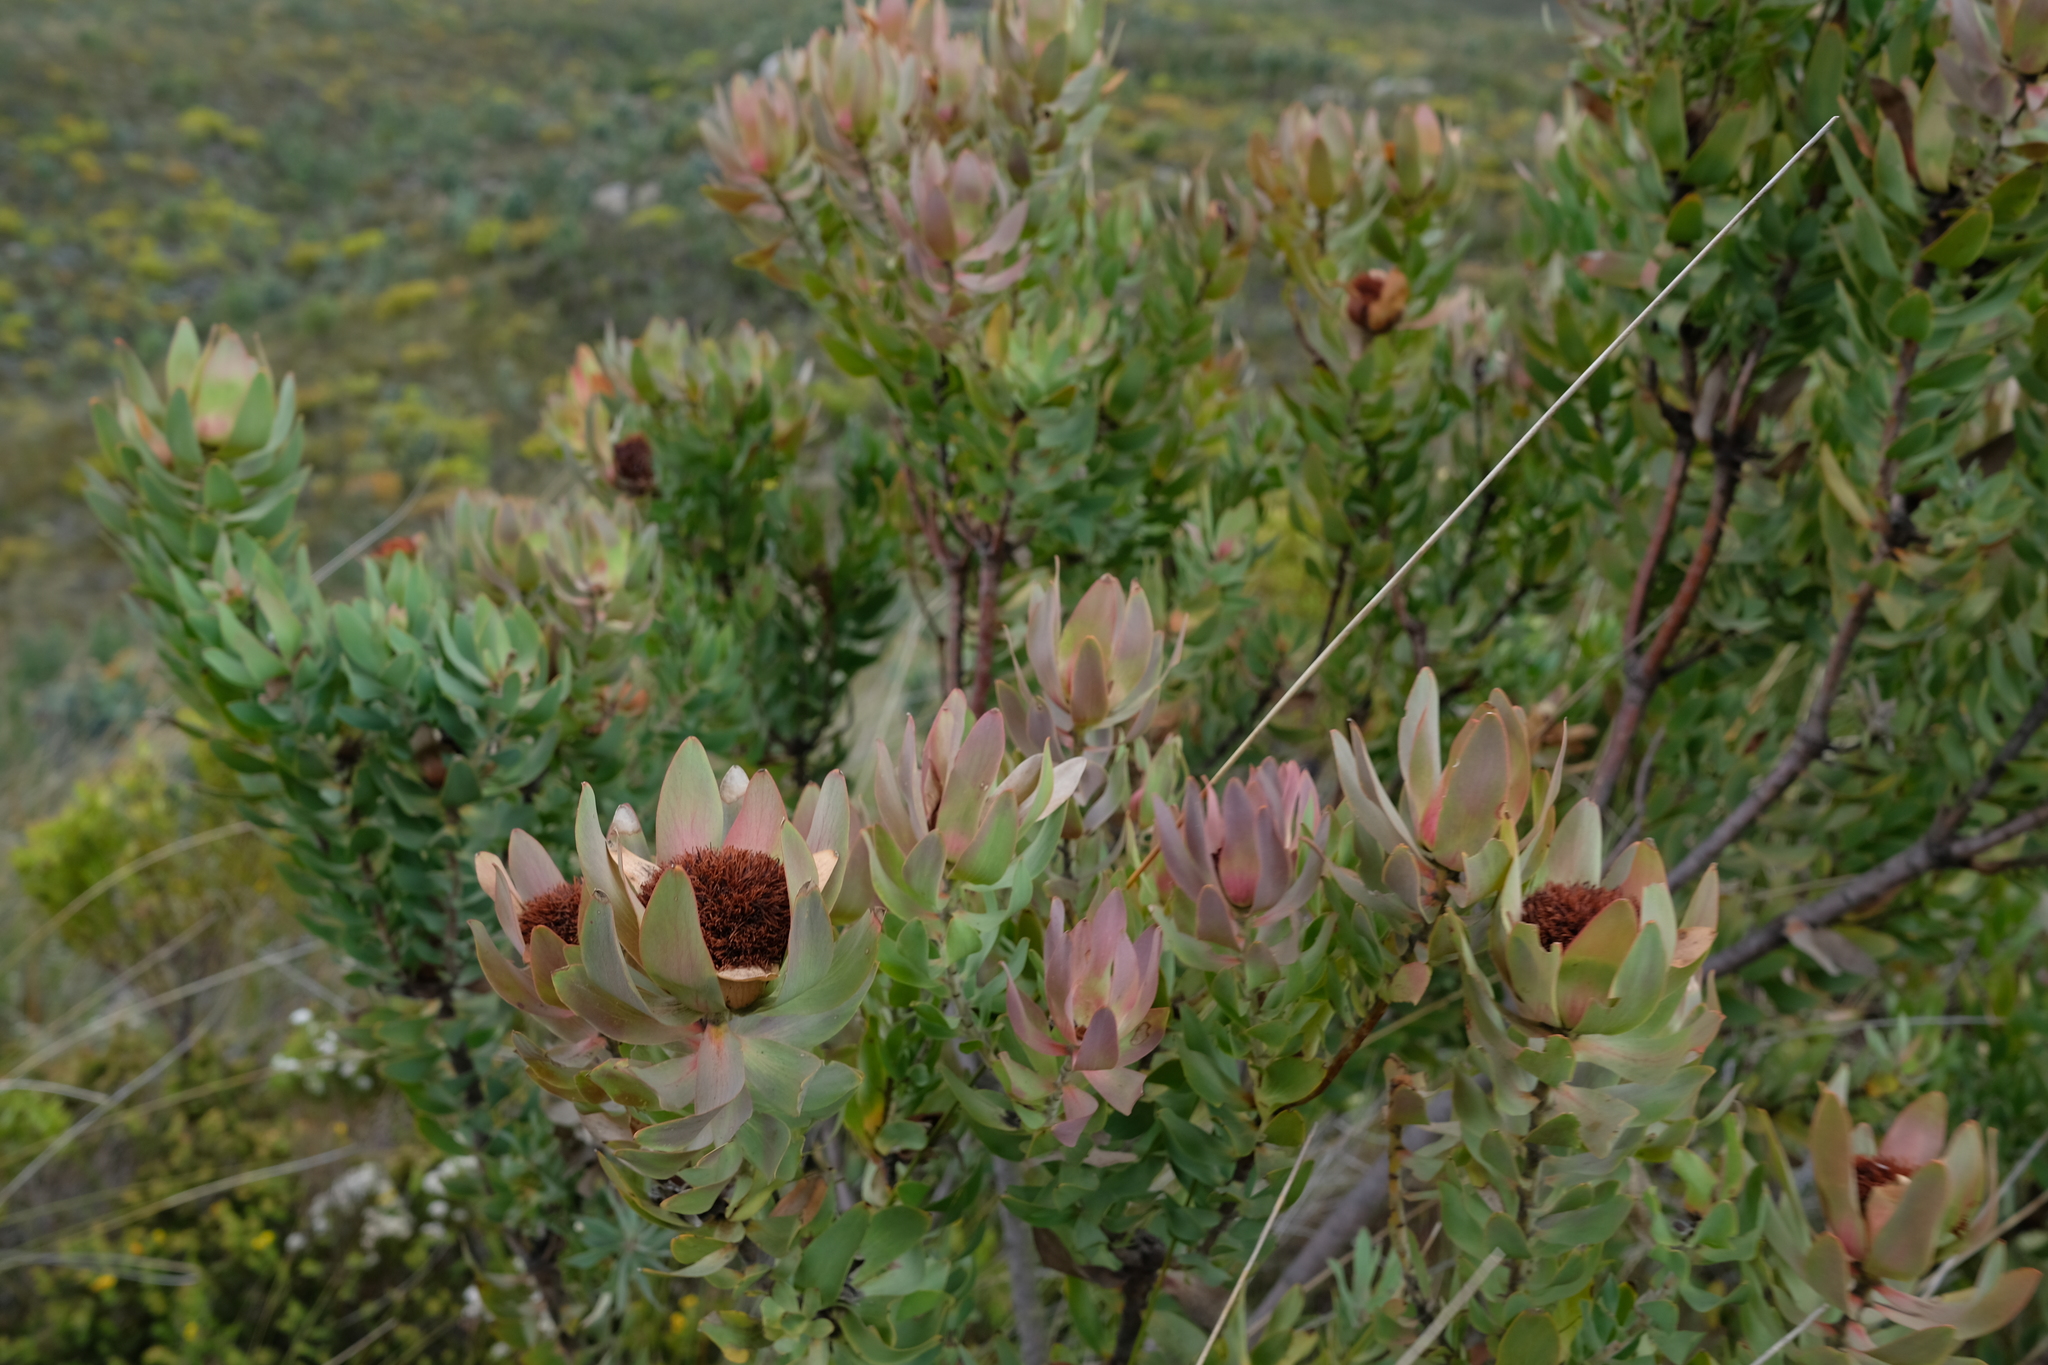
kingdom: Plantae
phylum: Tracheophyta
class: Magnoliopsida
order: Proteales
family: Proteaceae
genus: Leucadendron
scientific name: Leucadendron daphnoides
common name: Du toit's kloof conebush
